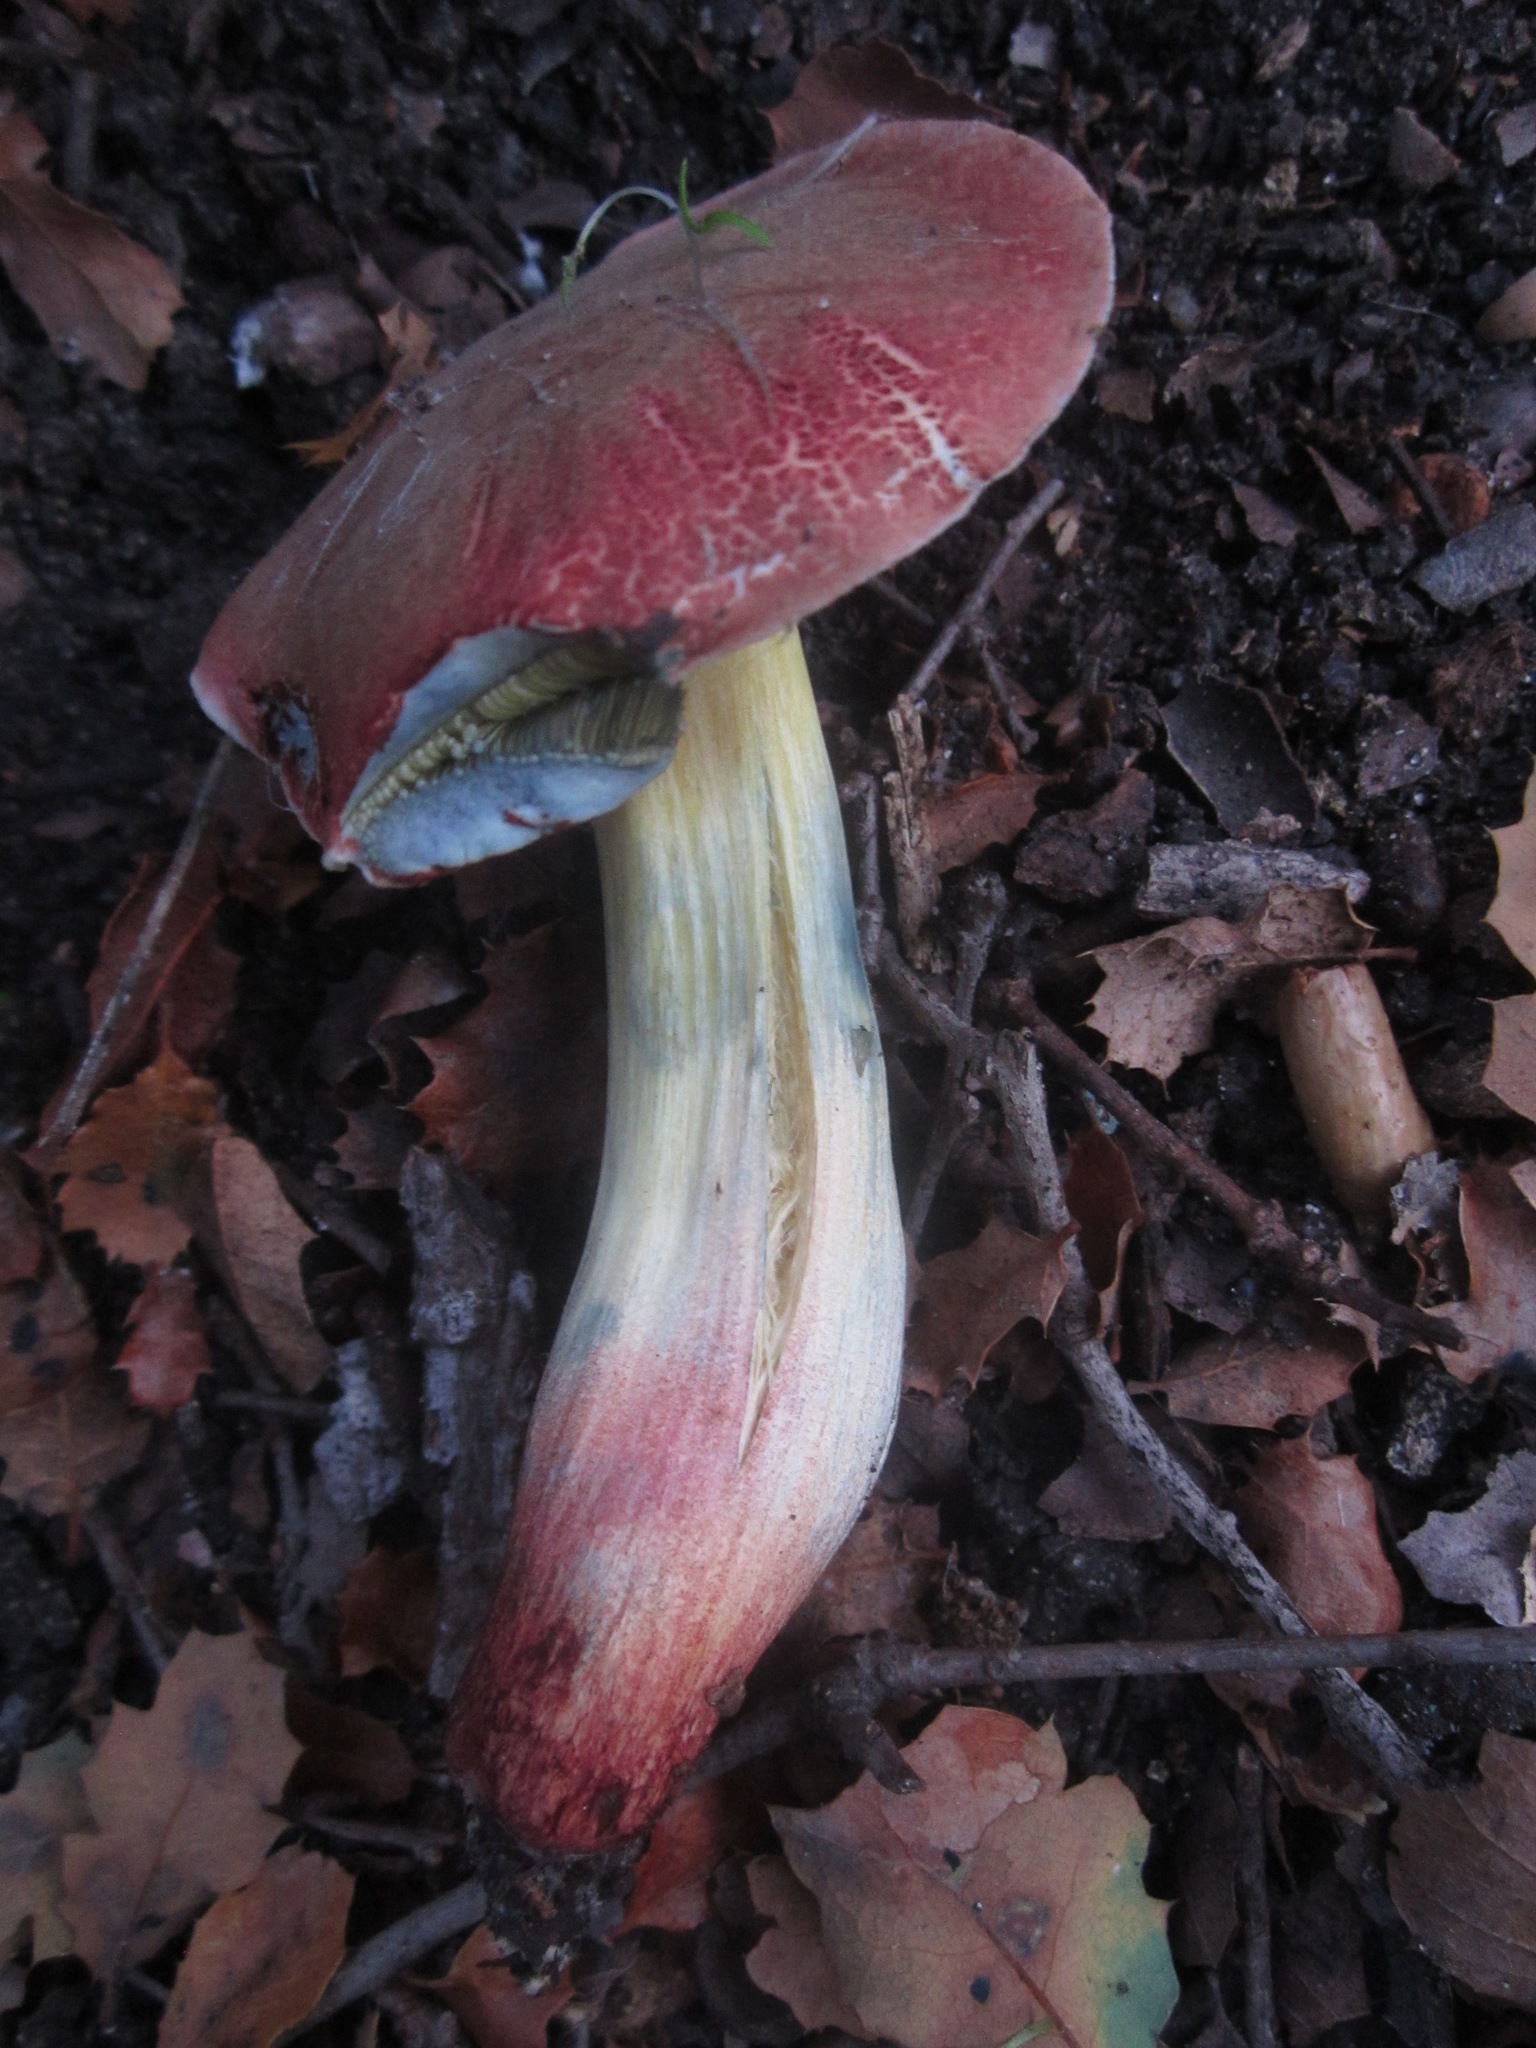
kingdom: Fungi
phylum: Basidiomycota
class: Agaricomycetes
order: Boletales
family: Boletaceae
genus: Xerocomellus
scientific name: Xerocomellus dryophilus
